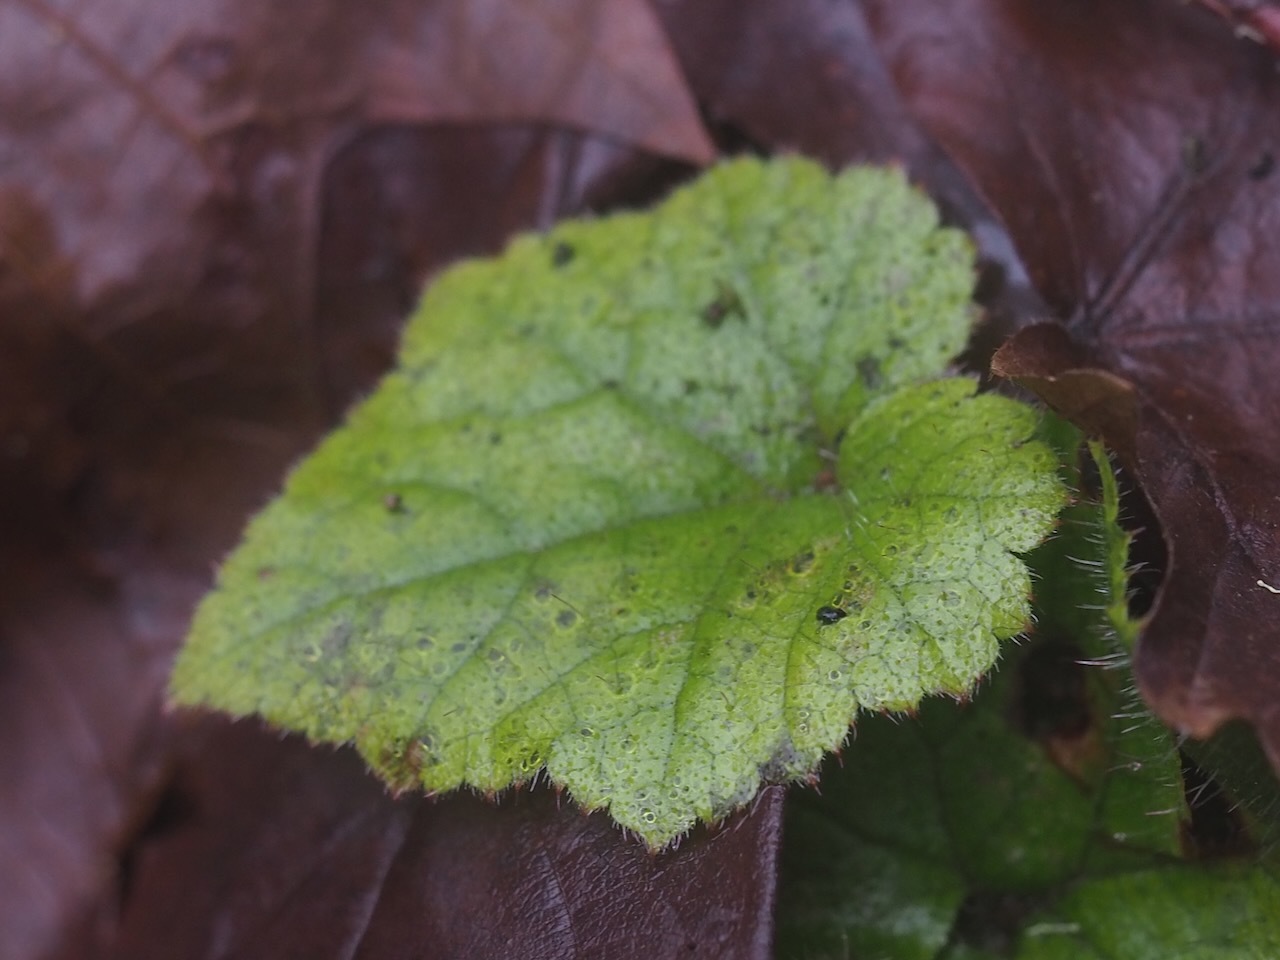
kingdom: Plantae
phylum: Tracheophyta
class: Magnoliopsida
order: Saxifragales
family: Saxifragaceae
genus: Tolmiea
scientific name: Tolmiea menziesii
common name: Pick-a-back-plant
